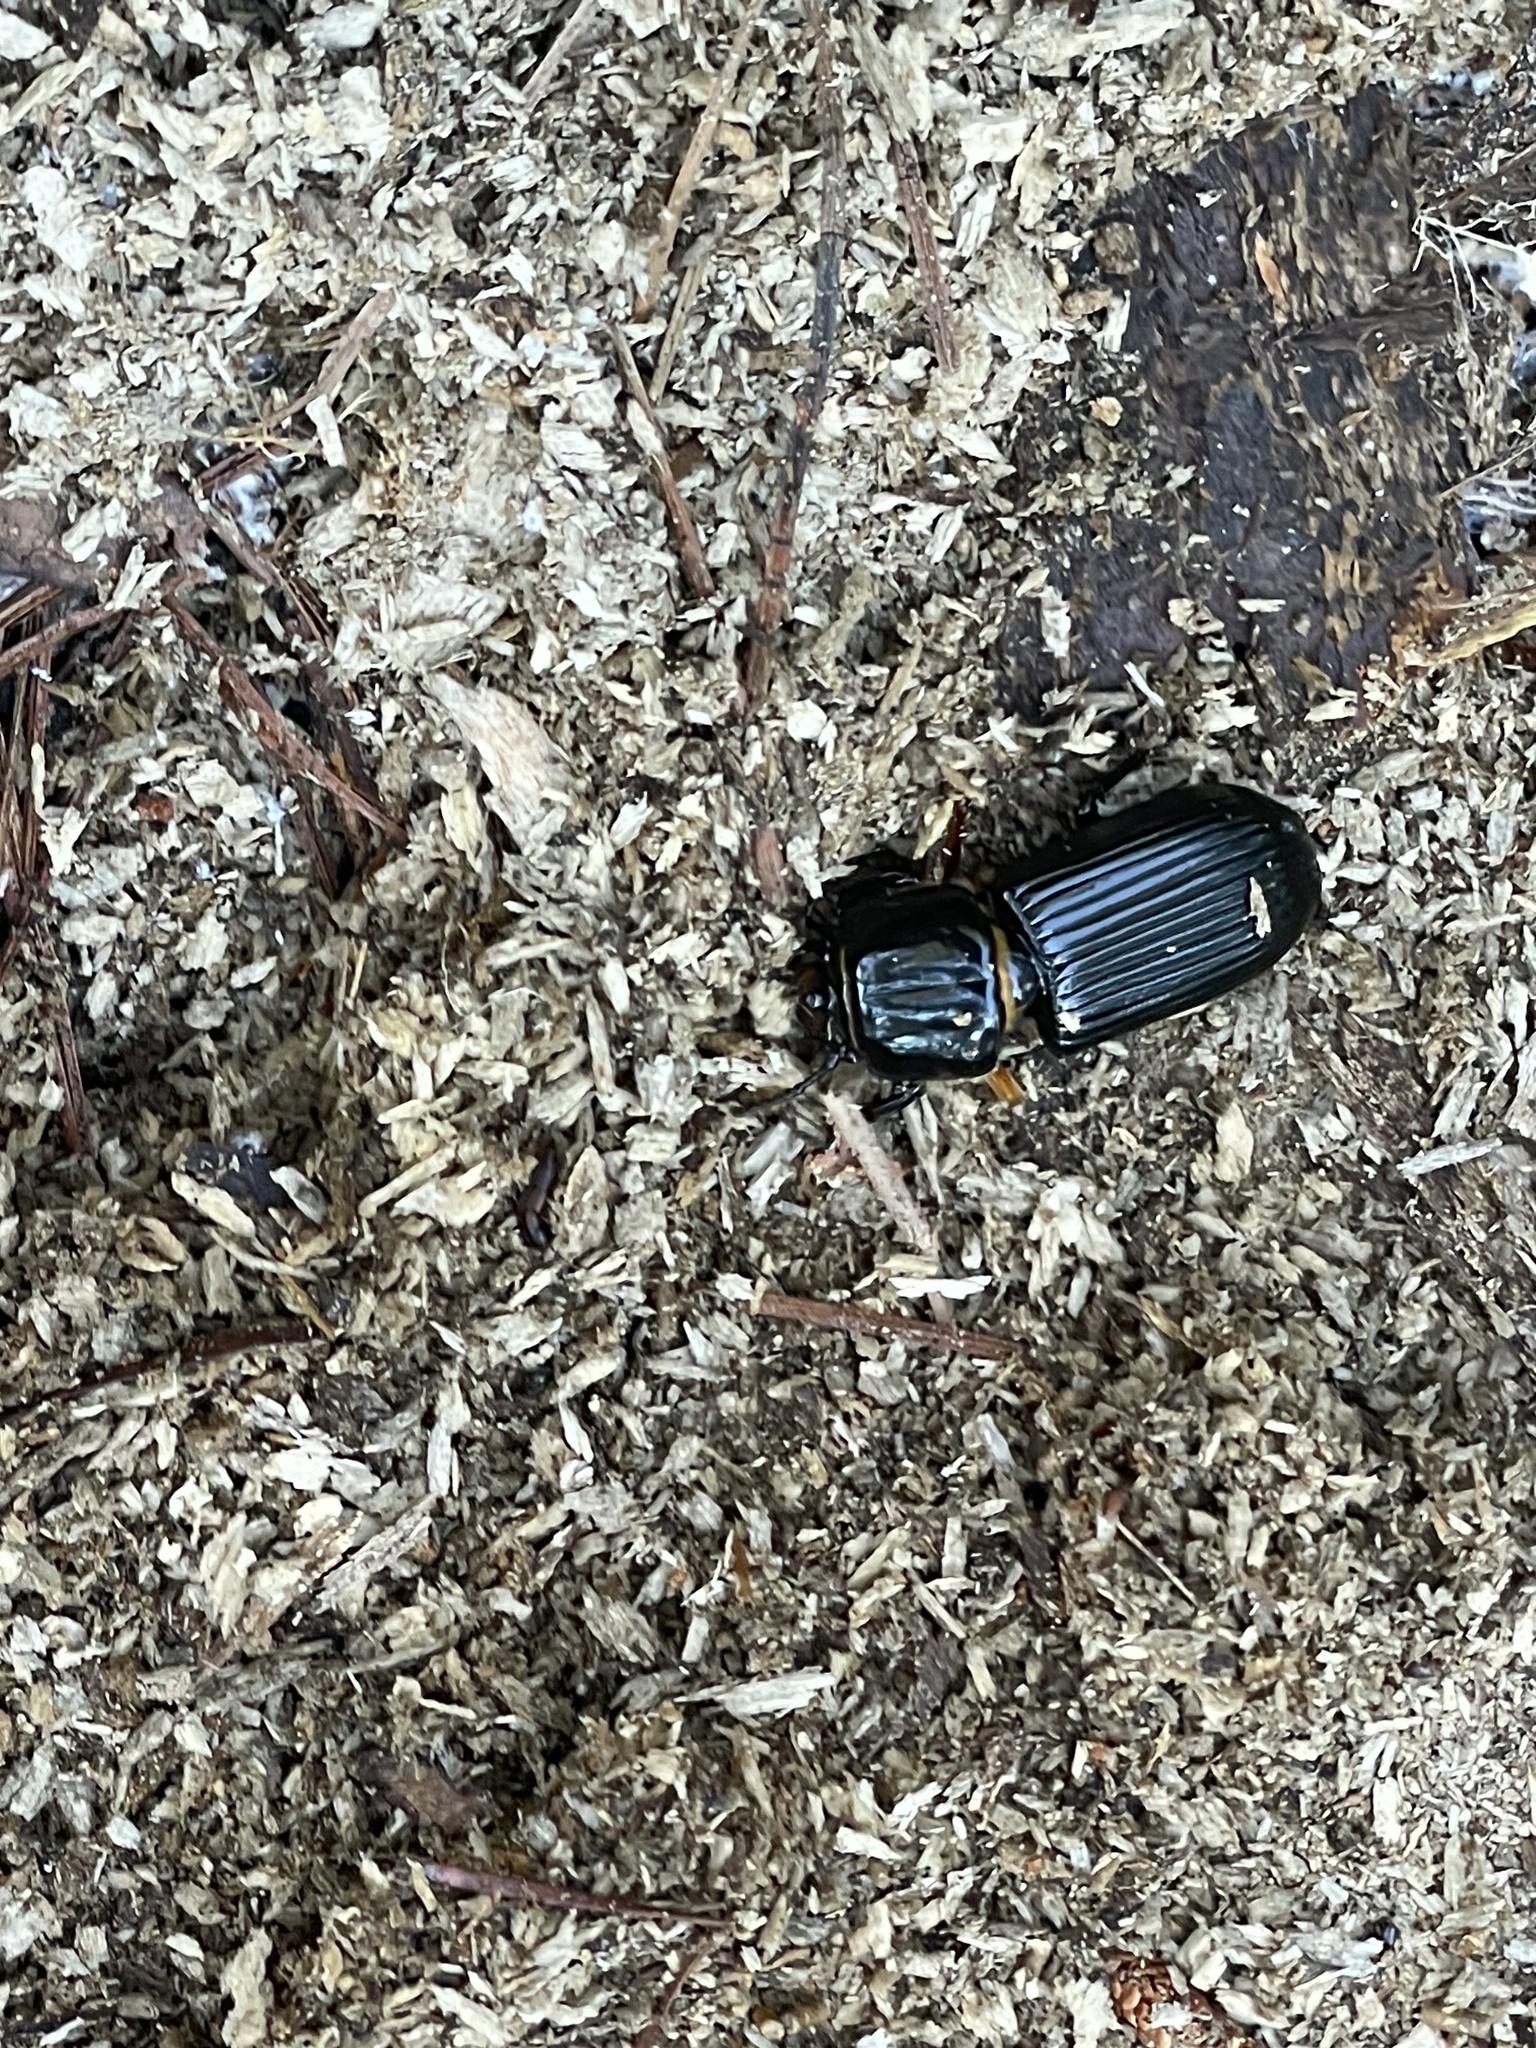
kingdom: Animalia
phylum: Arthropoda
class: Insecta
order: Coleoptera
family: Passalidae
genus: Odontotaenius
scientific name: Odontotaenius disjunctus
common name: Patent leather beetle
